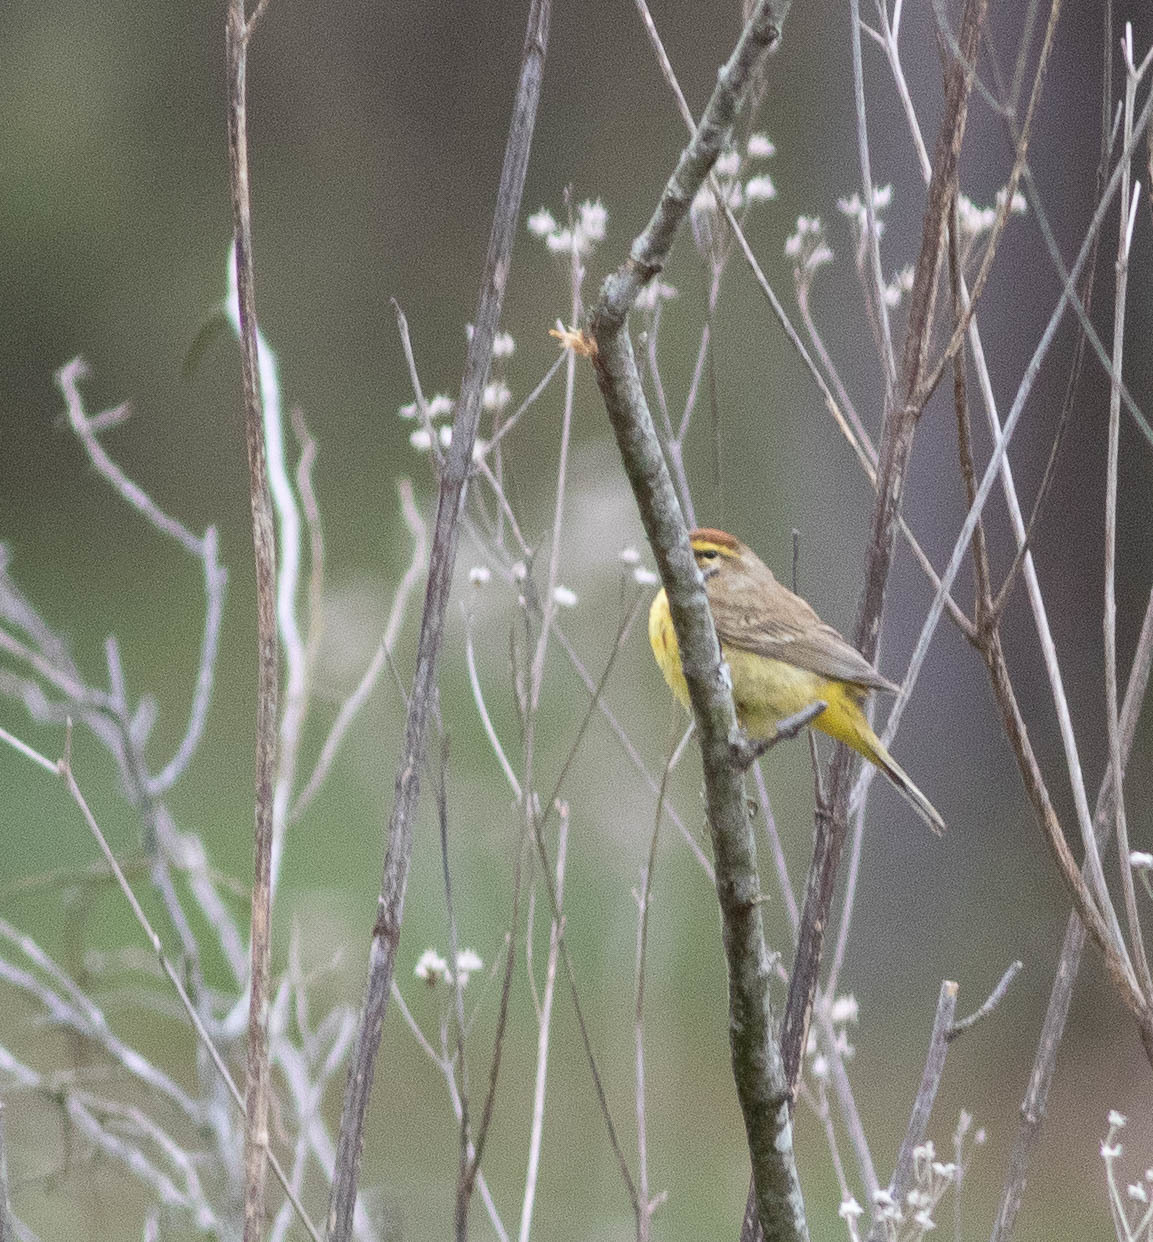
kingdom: Animalia
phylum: Chordata
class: Aves
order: Passeriformes
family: Parulidae
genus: Setophaga
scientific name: Setophaga palmarum
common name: Palm warbler
